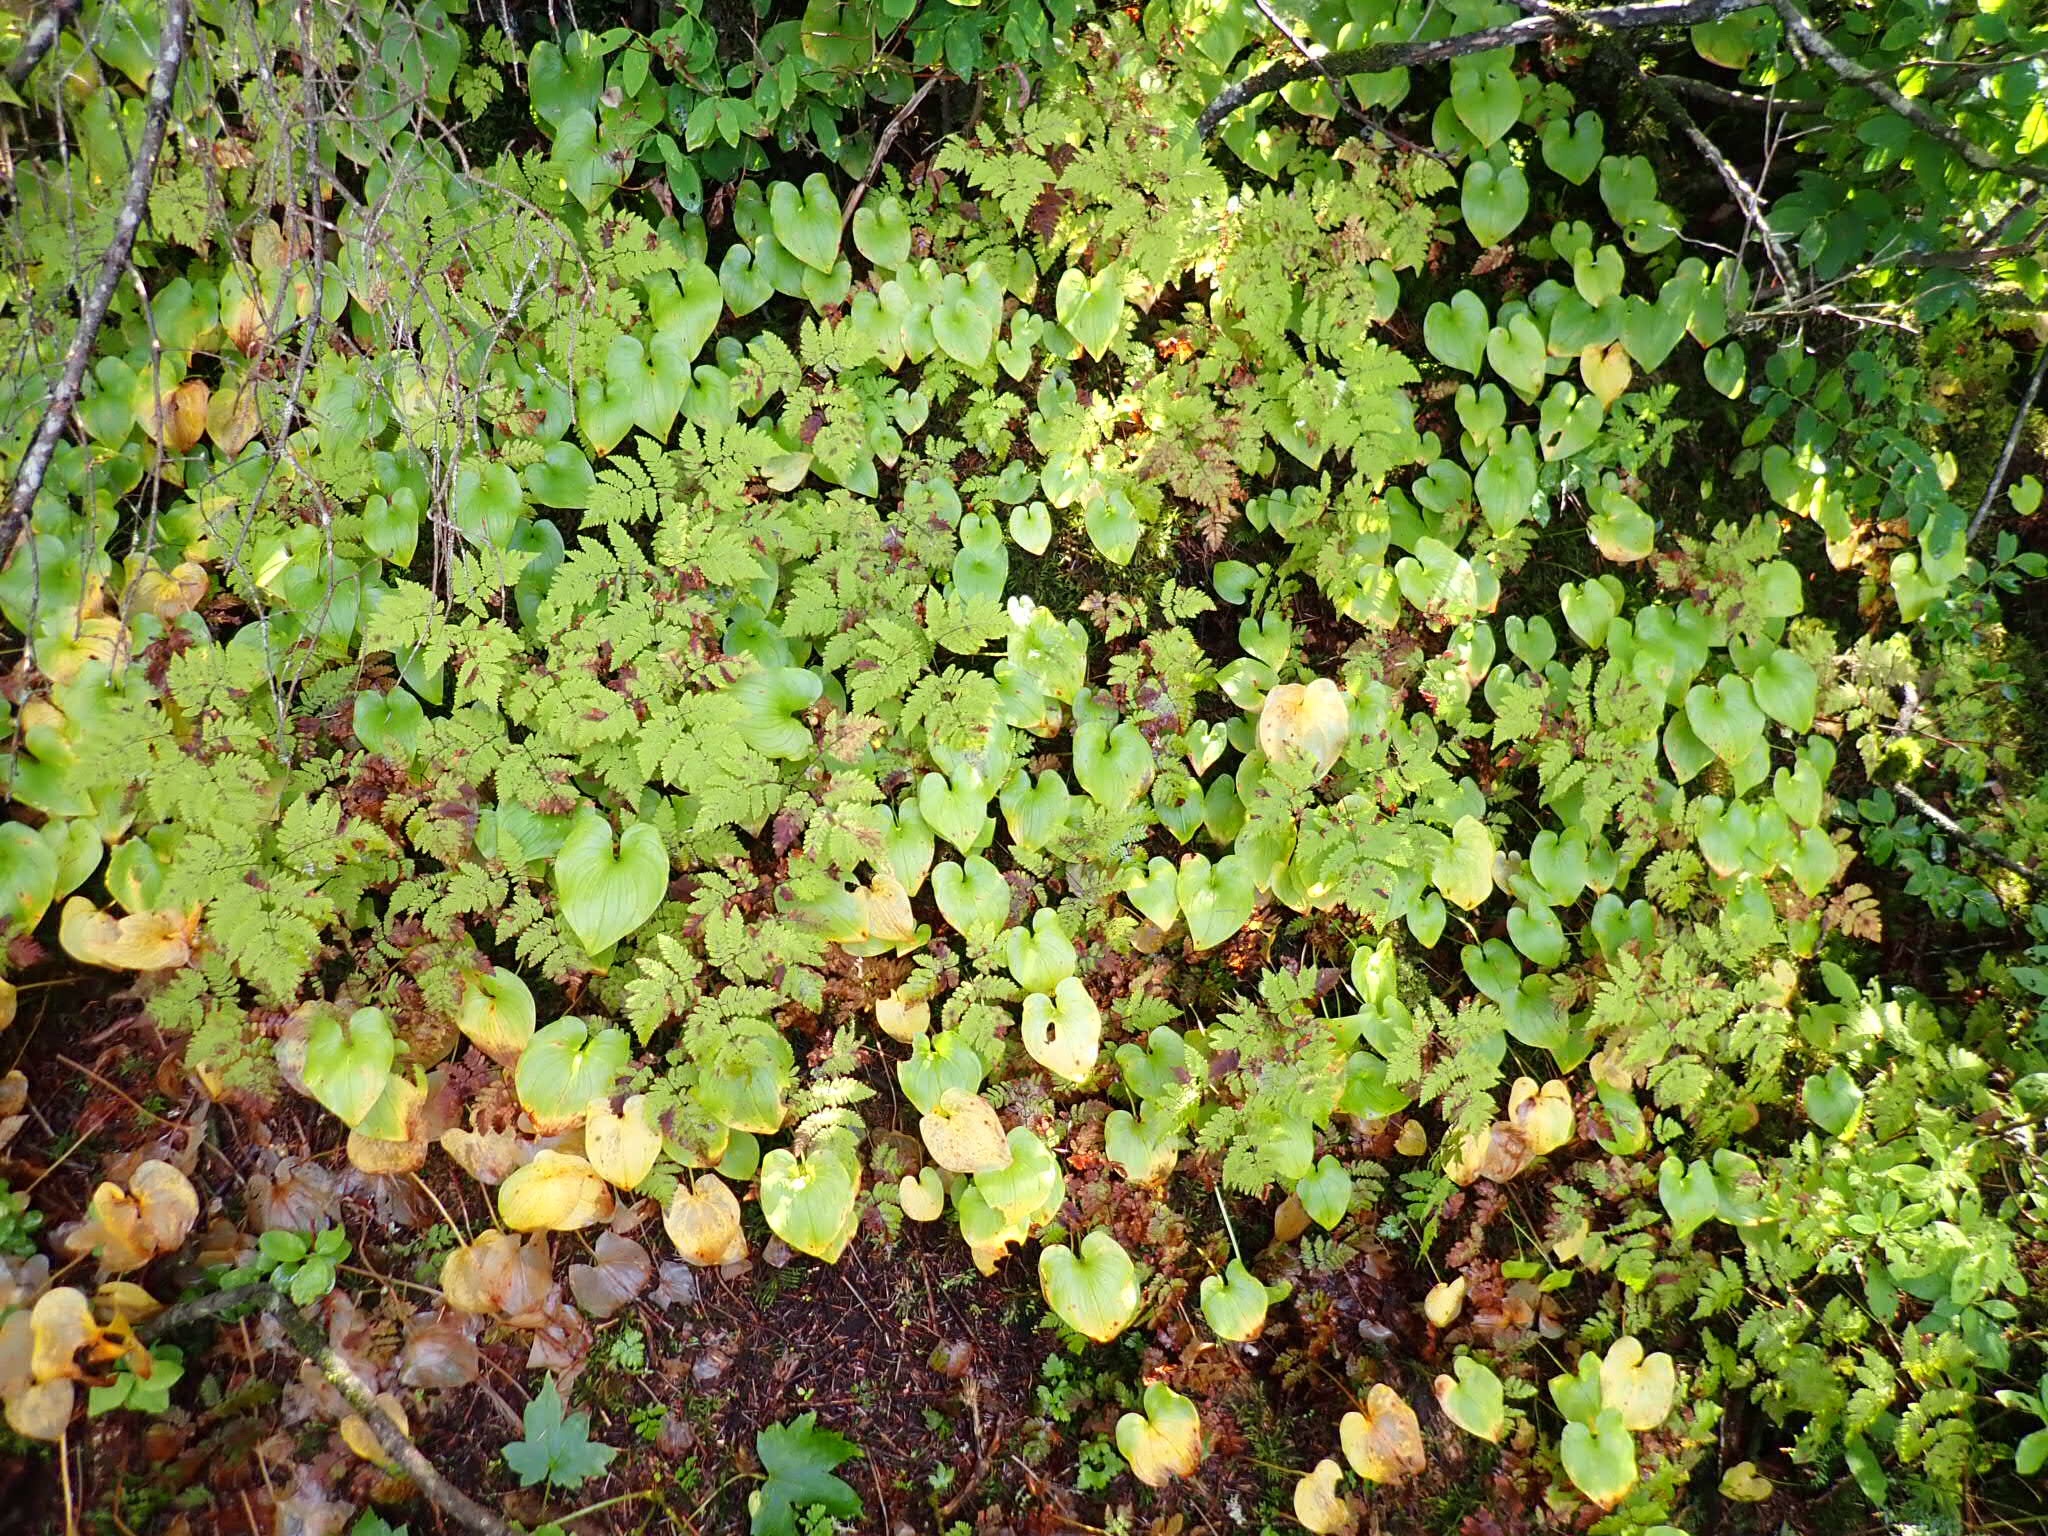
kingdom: Plantae
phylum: Tracheophyta
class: Liliopsida
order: Asparagales
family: Asparagaceae
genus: Maianthemum
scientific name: Maianthemum dilatatum
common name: False lily-of-the-valley
